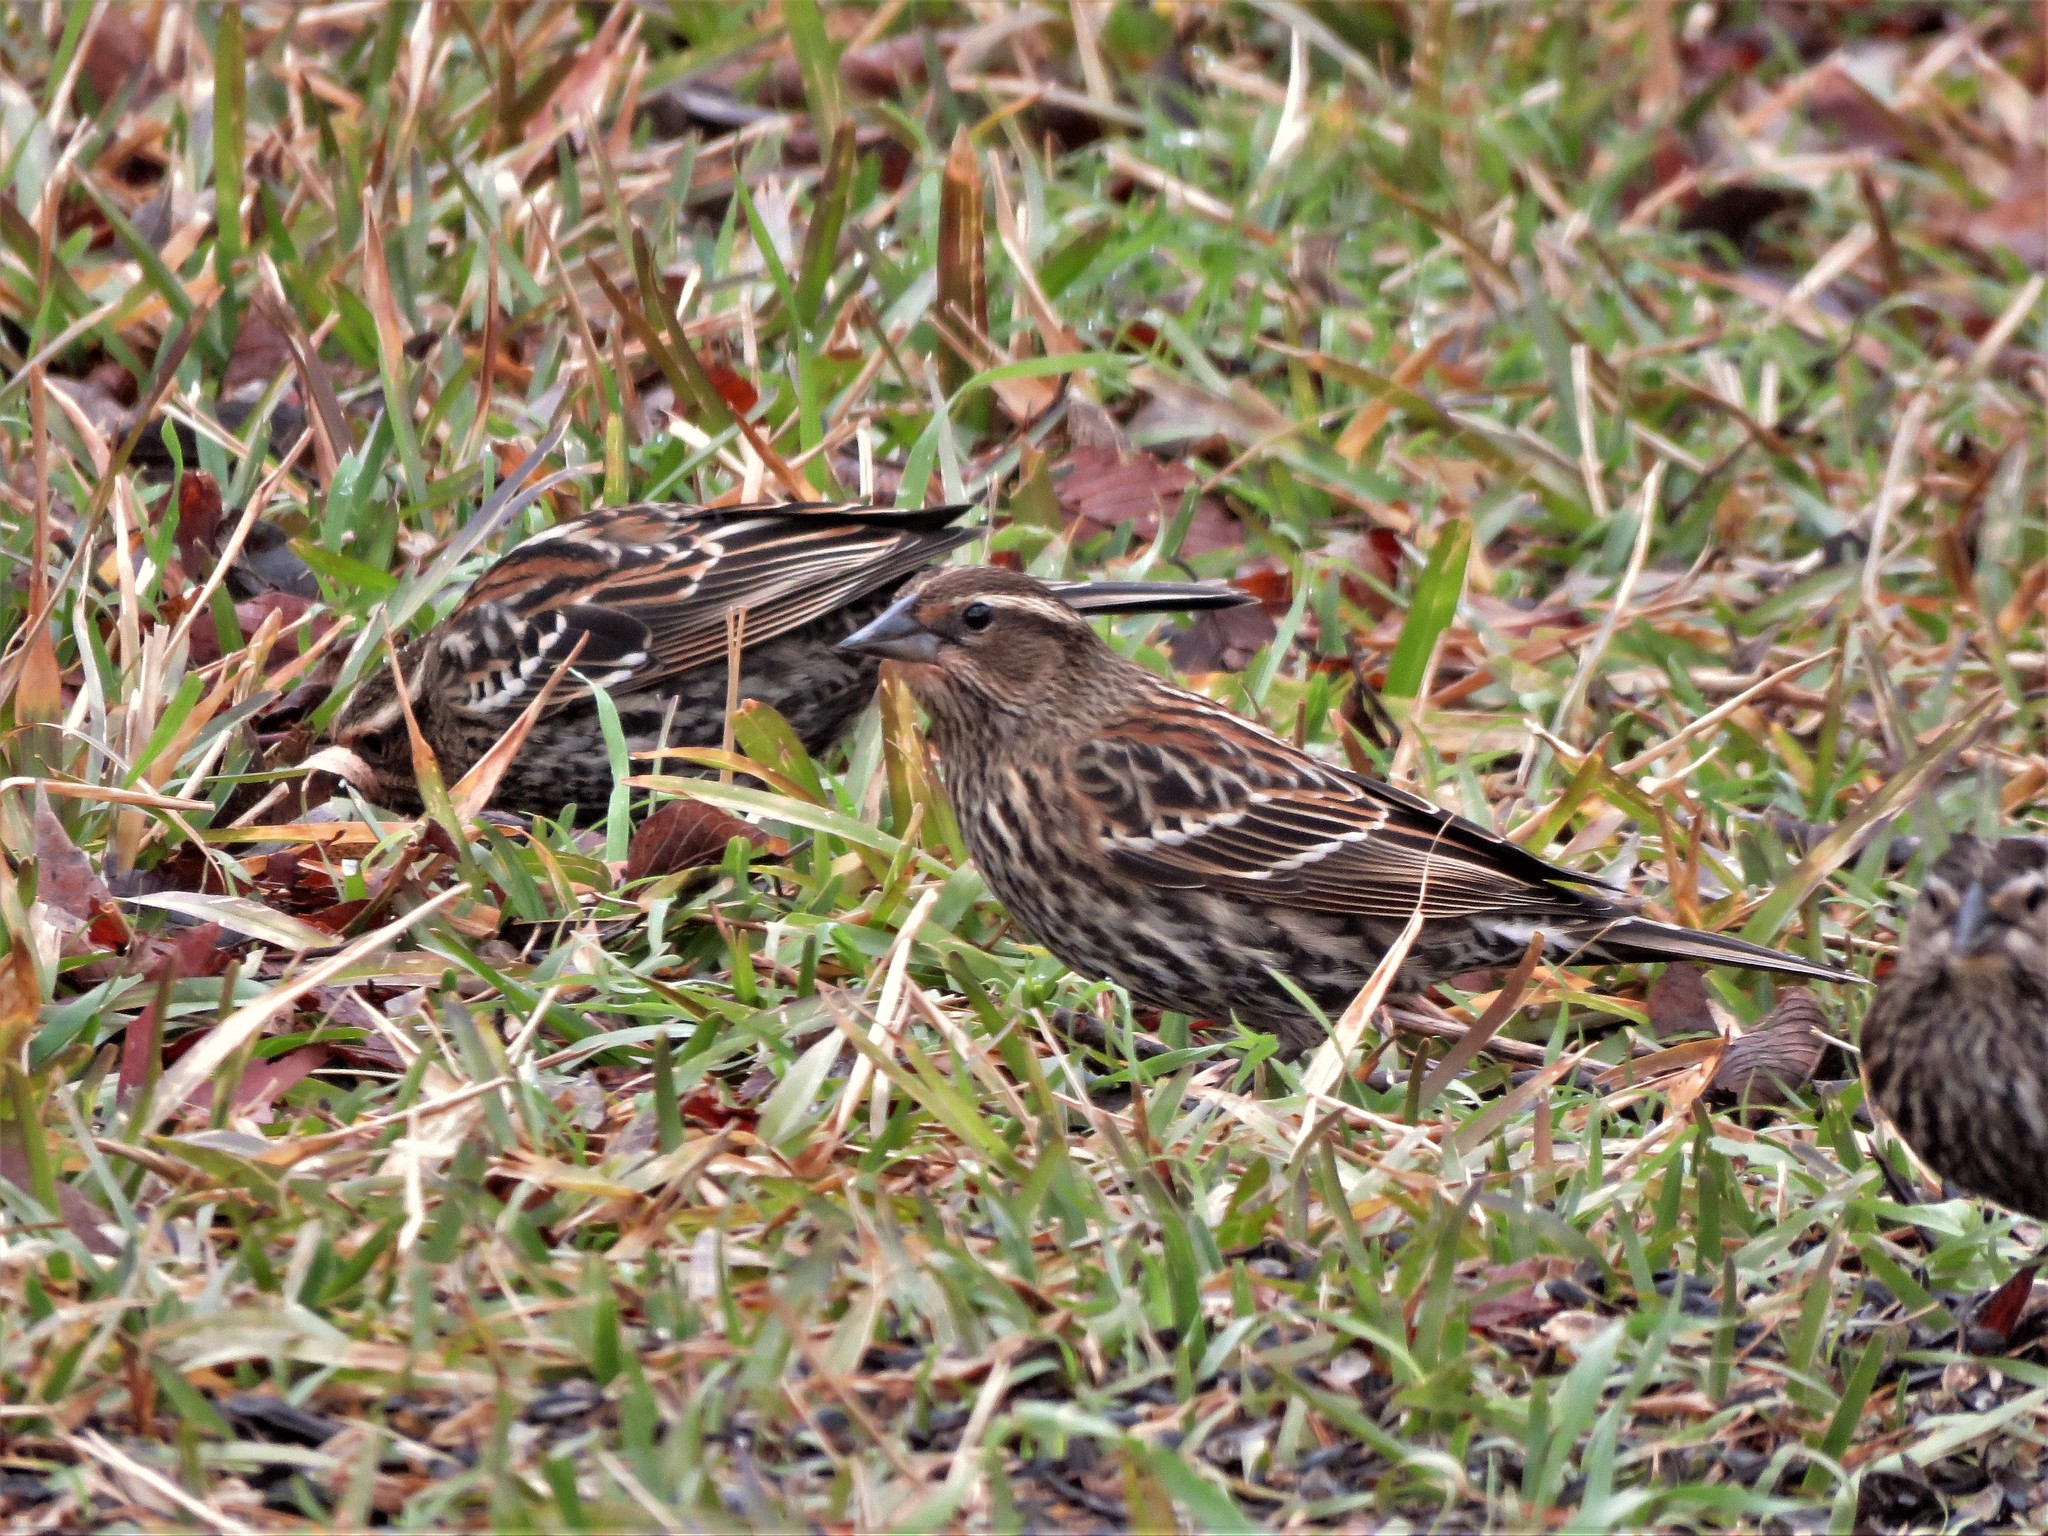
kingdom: Animalia
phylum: Chordata
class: Aves
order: Passeriformes
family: Icteridae
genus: Agelaius
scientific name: Agelaius phoeniceus
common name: Red-winged blackbird
